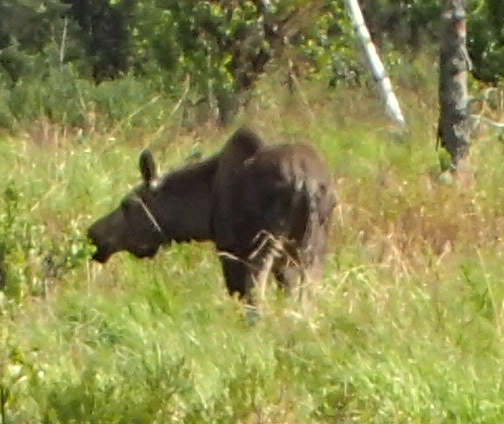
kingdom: Animalia
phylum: Chordata
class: Mammalia
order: Artiodactyla
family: Cervidae
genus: Alces
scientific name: Alces alces
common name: Moose
